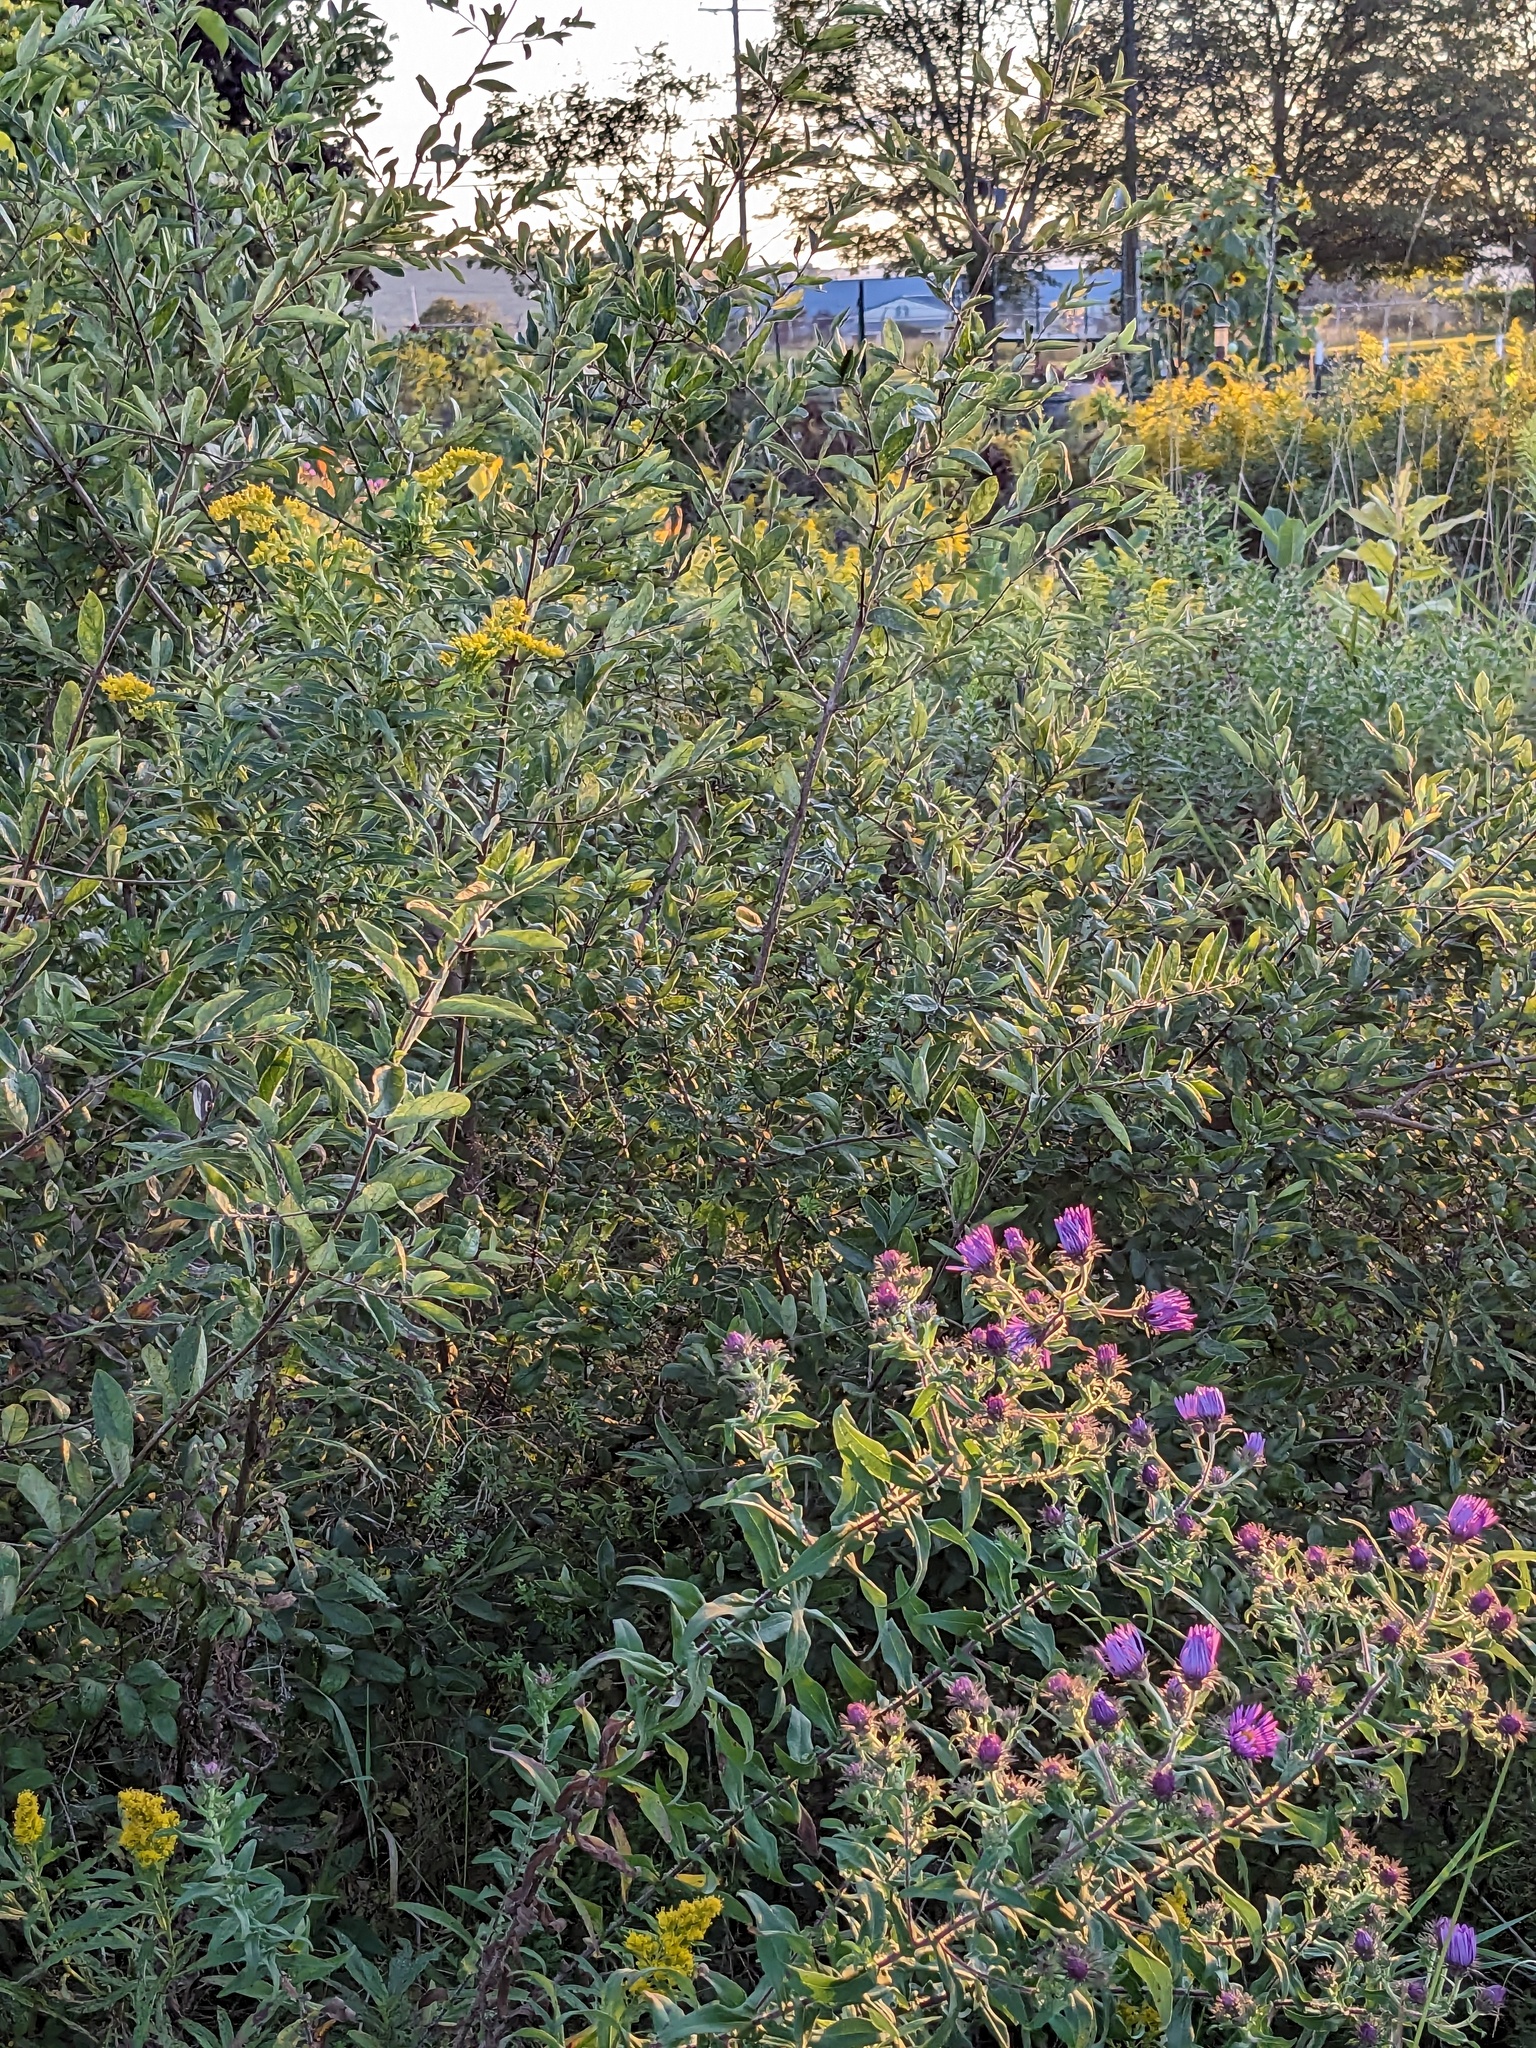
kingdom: Plantae
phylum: Tracheophyta
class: Magnoliopsida
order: Rosales
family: Elaeagnaceae
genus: Elaeagnus
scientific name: Elaeagnus umbellata
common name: Autumn olive
